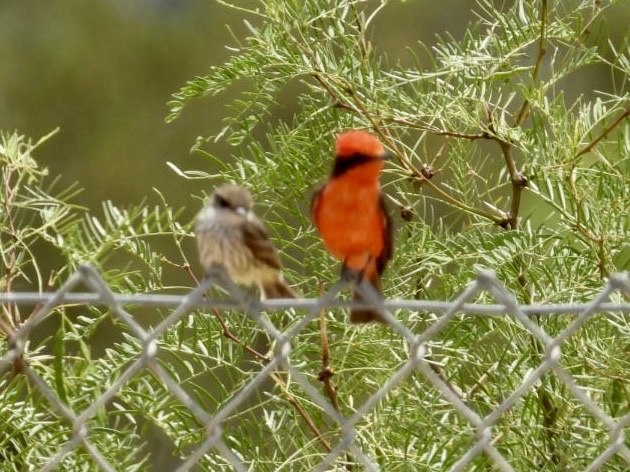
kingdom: Animalia
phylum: Chordata
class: Aves
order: Passeriformes
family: Tyrannidae
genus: Pyrocephalus
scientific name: Pyrocephalus rubinus
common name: Vermilion flycatcher
